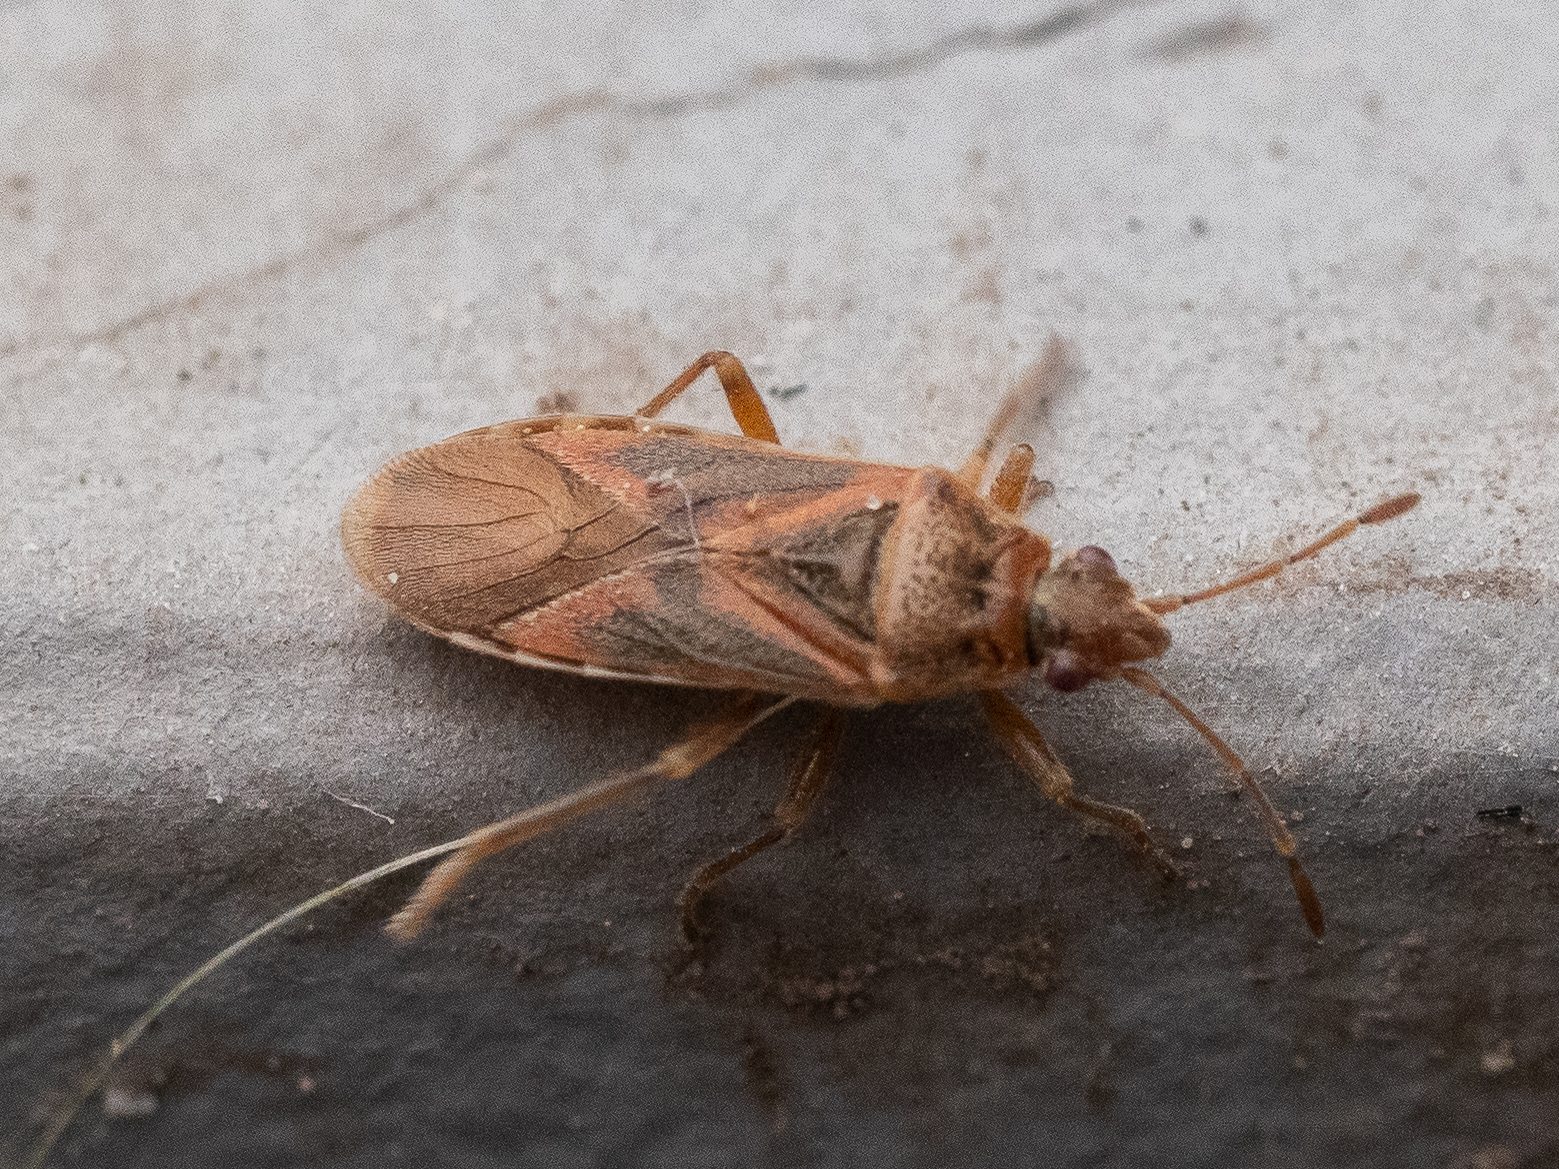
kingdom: Animalia
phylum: Arthropoda
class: Insecta
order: Hemiptera
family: Lygaeidae
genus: Arocatus
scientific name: Arocatus longiceps
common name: Plane tree bug
